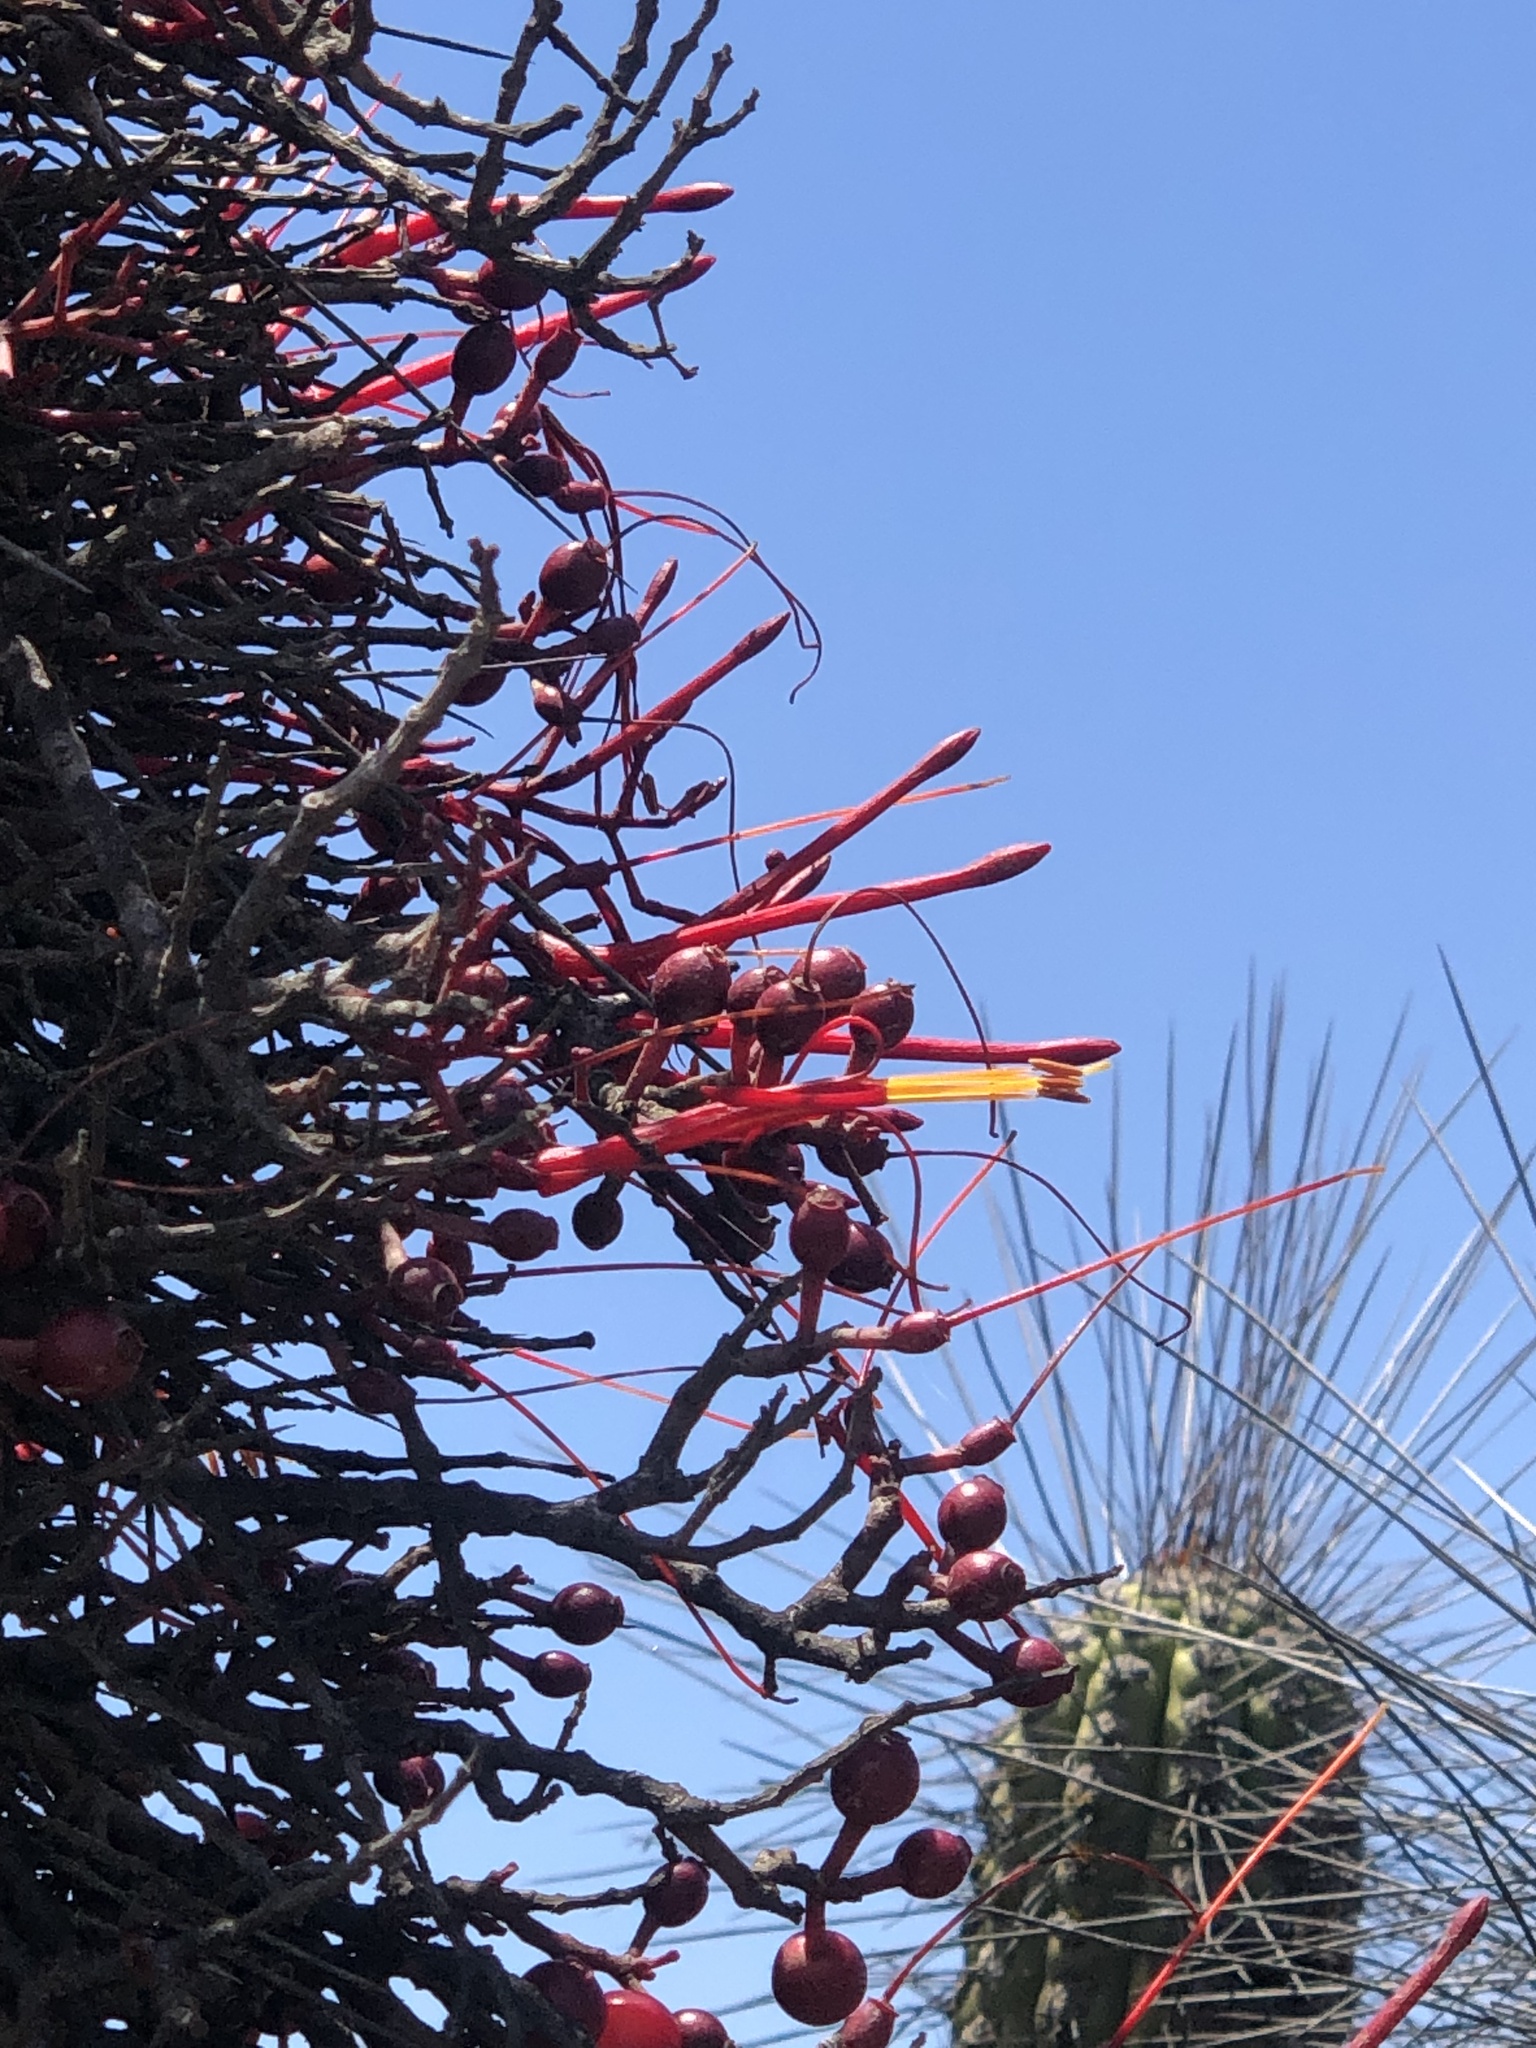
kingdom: Plantae
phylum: Tracheophyta
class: Magnoliopsida
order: Santalales
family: Loranthaceae
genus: Tristerix
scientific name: Tristerix aphyllus
